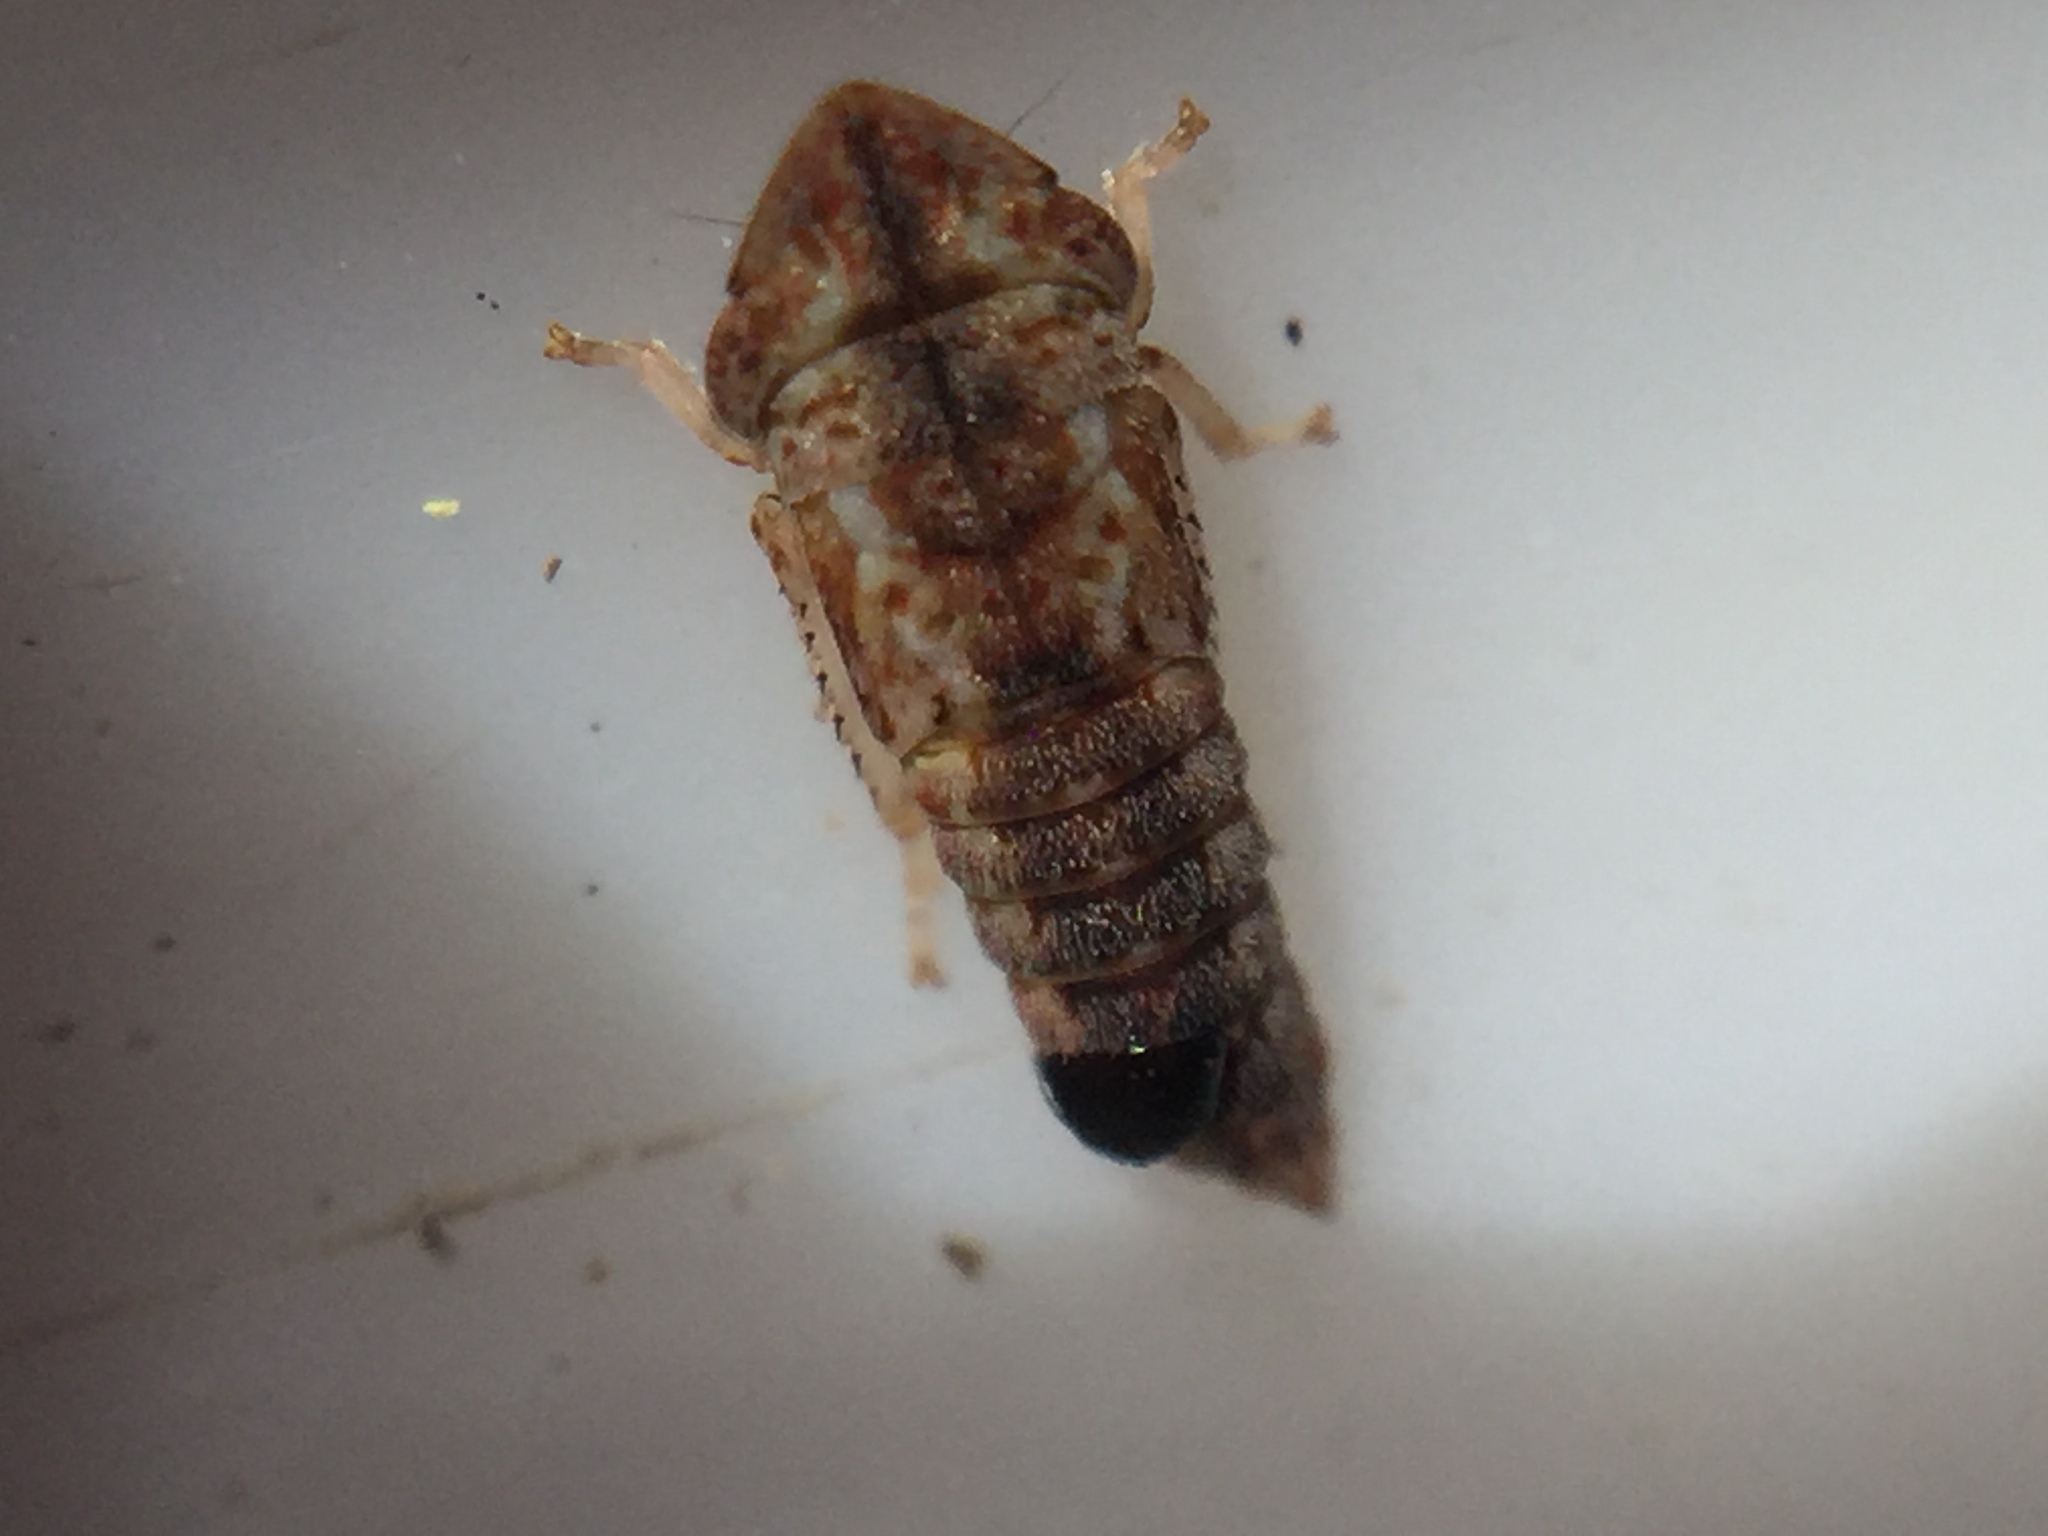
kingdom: Animalia
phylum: Arthropoda
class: Insecta
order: Strepsiptera
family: Halictophagidae
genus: Coriophagus
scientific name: Coriophagus casui
